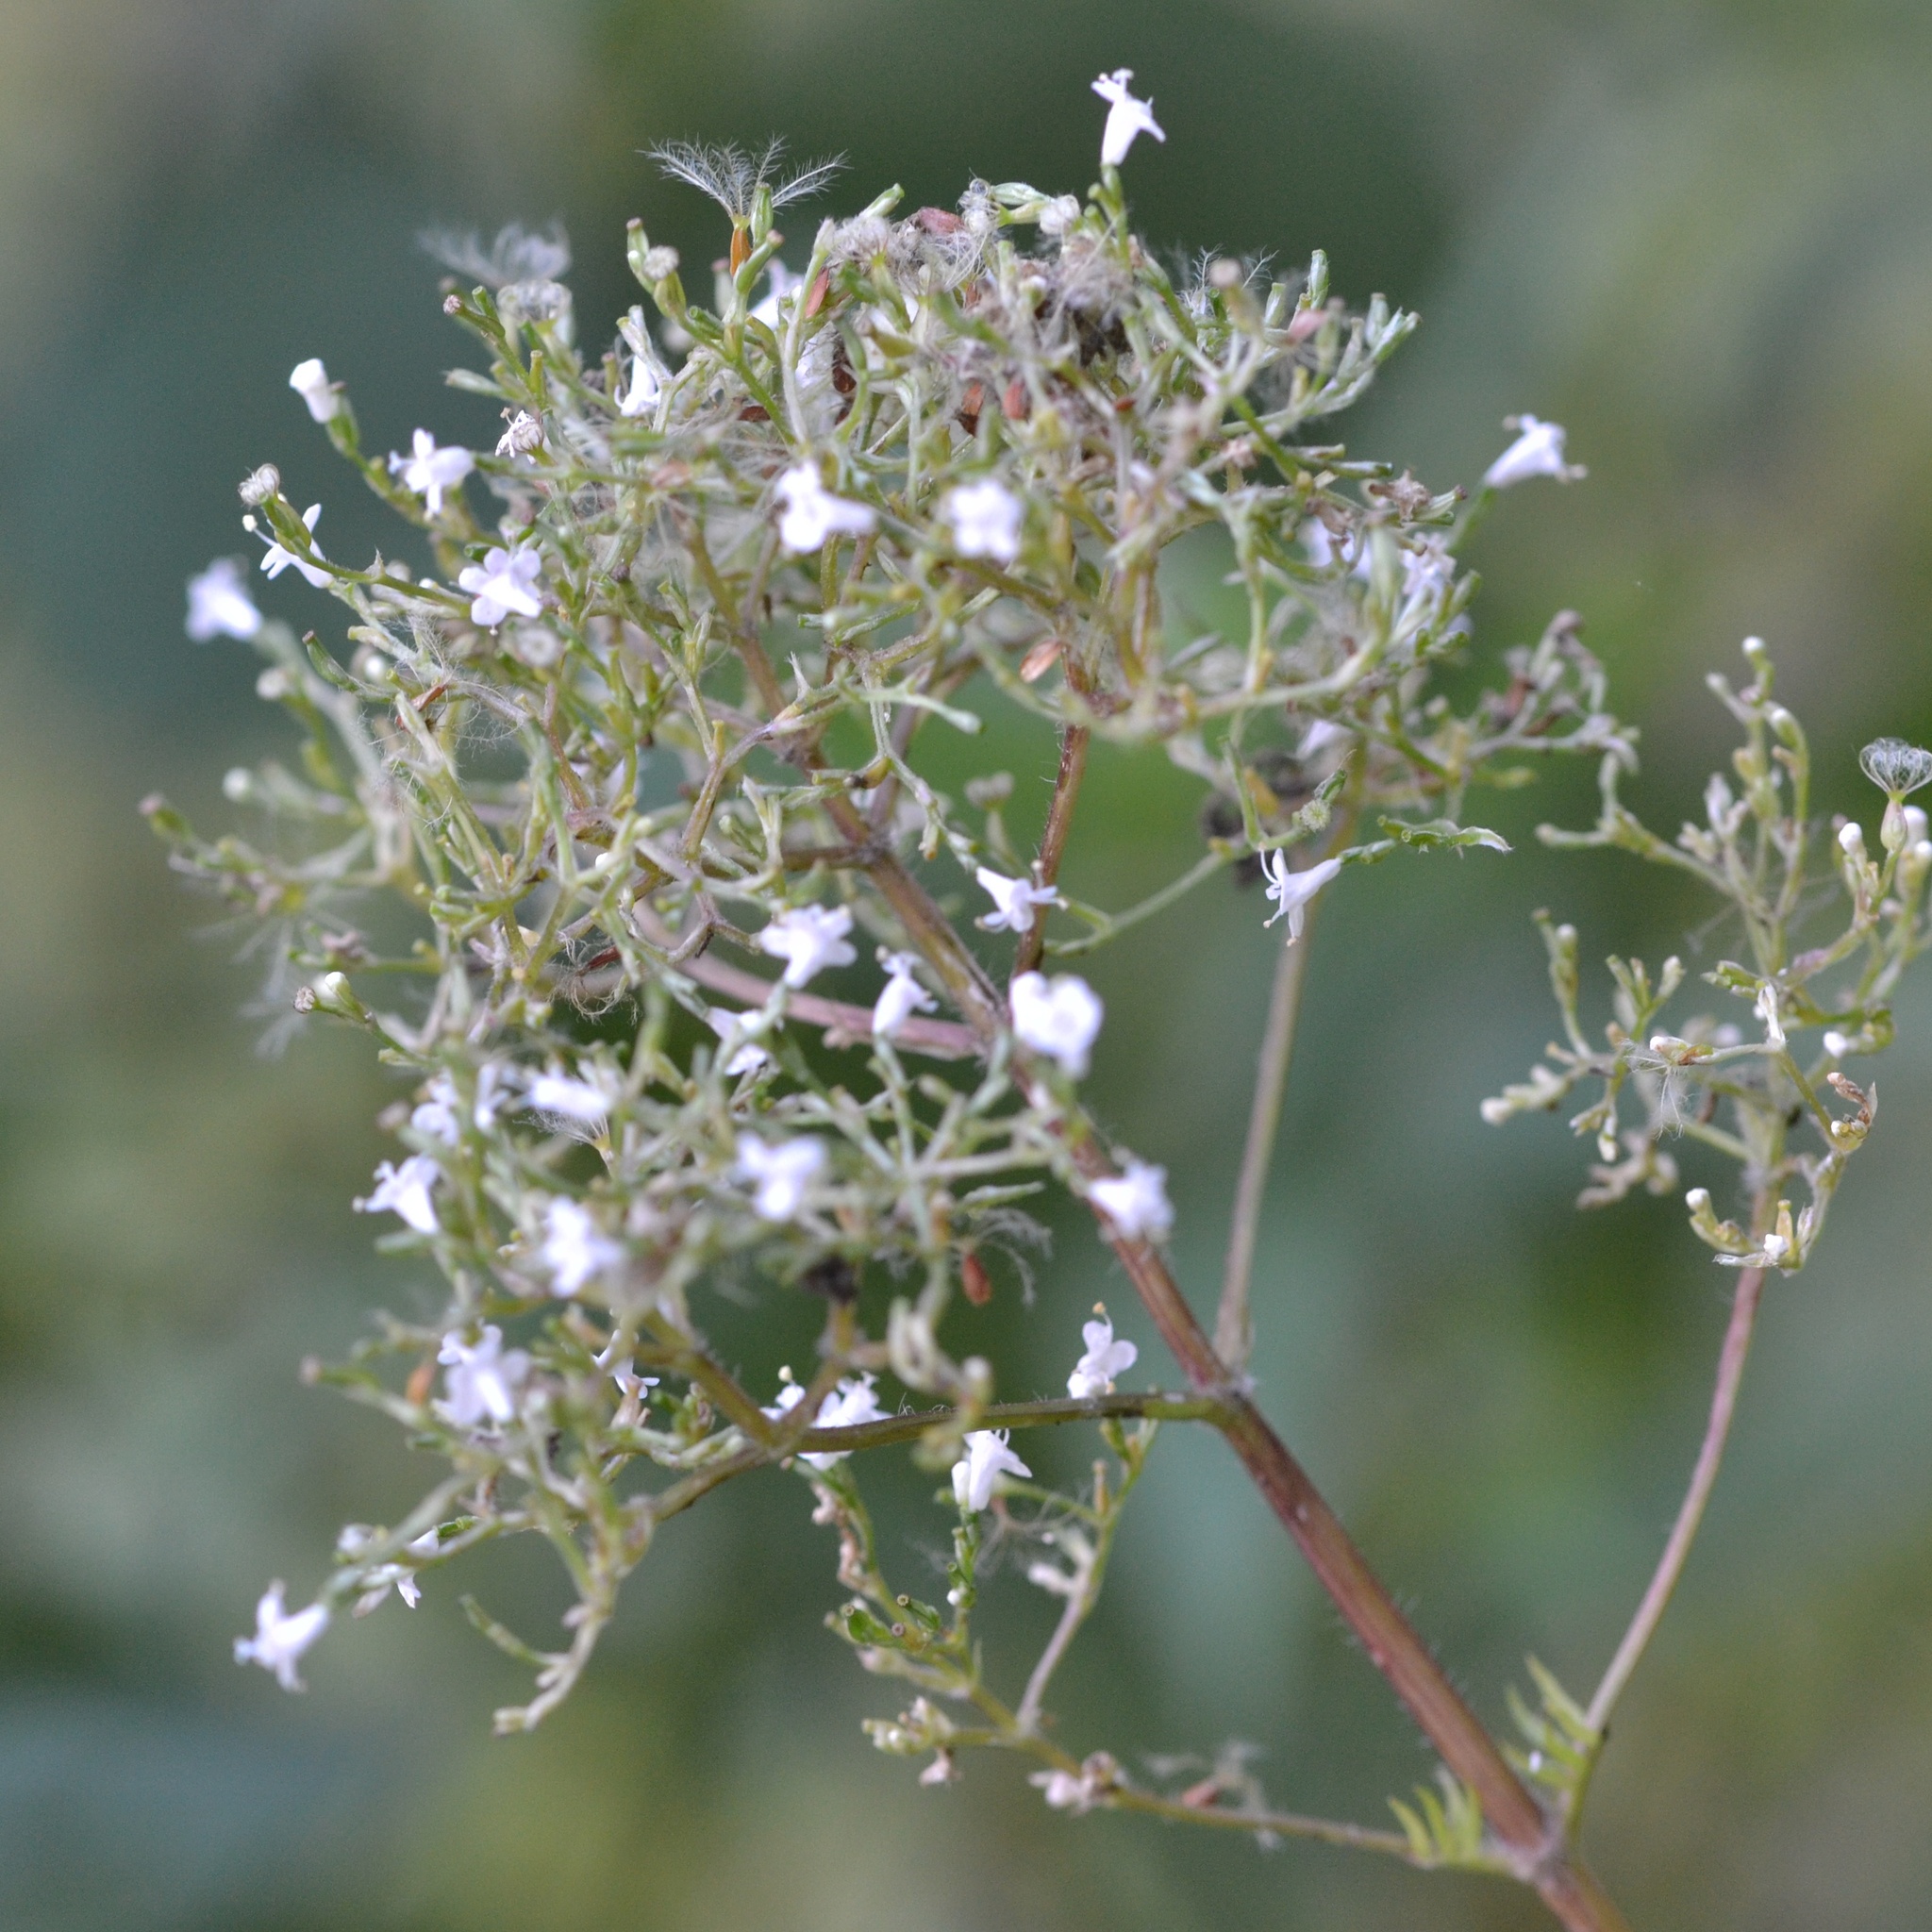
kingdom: Plantae
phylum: Tracheophyta
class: Magnoliopsida
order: Dipsacales
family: Caprifoliaceae
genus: Valeriana
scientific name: Valeriana officinalis
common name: Common valerian
